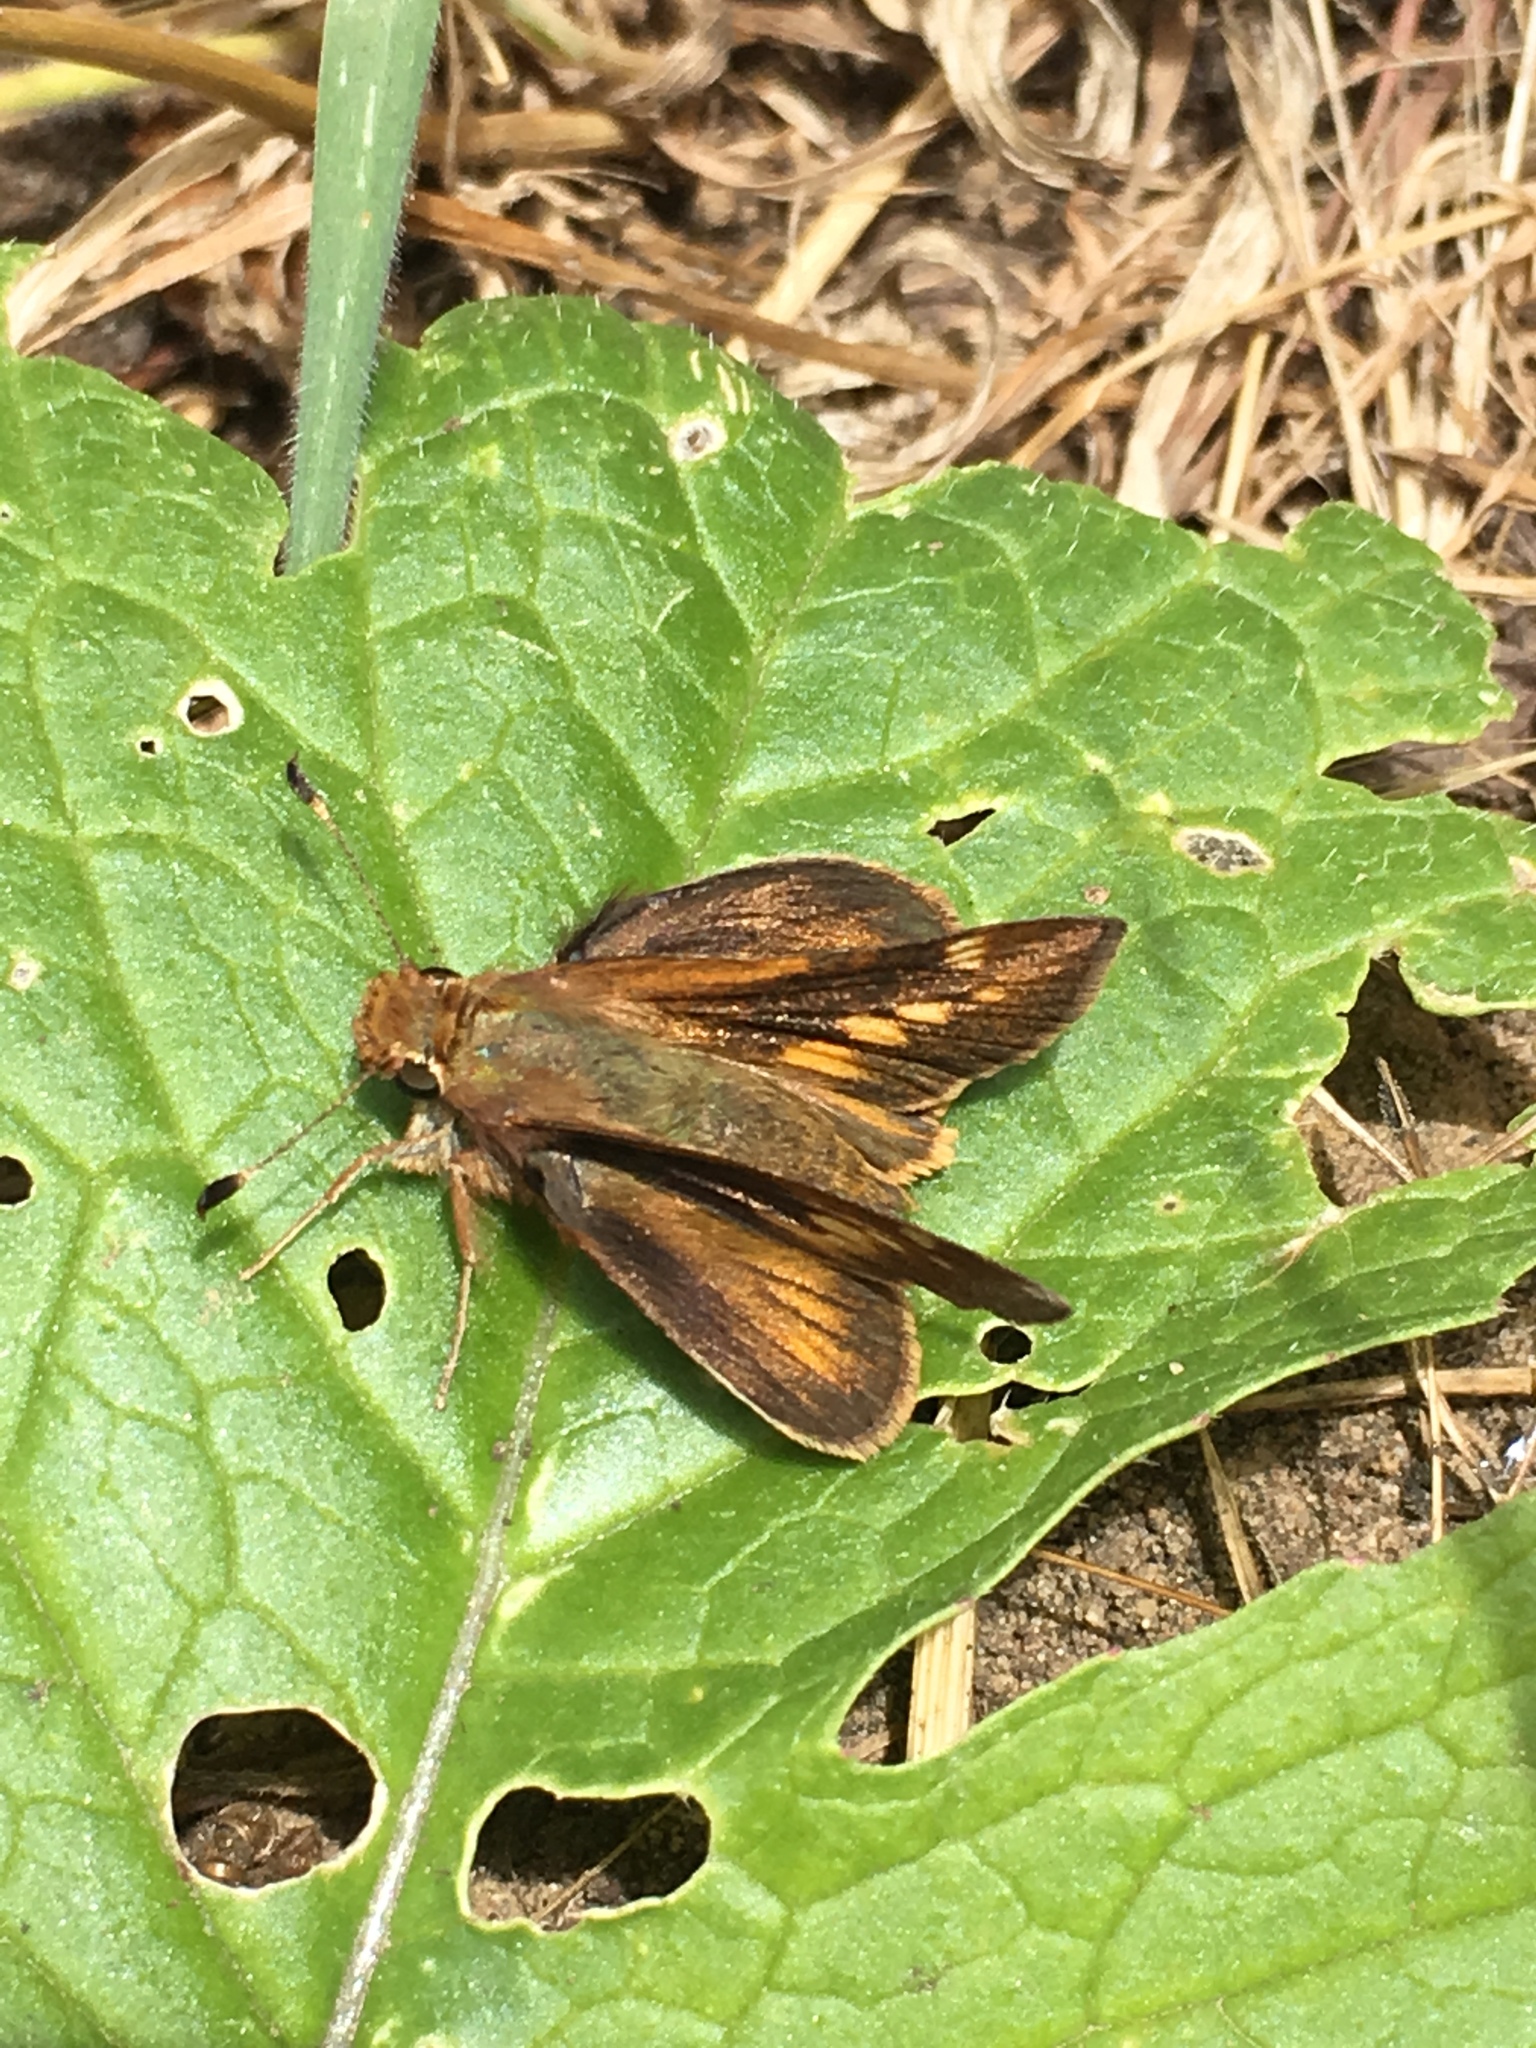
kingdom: Animalia
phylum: Arthropoda
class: Insecta
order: Lepidoptera
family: Hesperiidae
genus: Lon
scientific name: Lon melane
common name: Umber skipper
